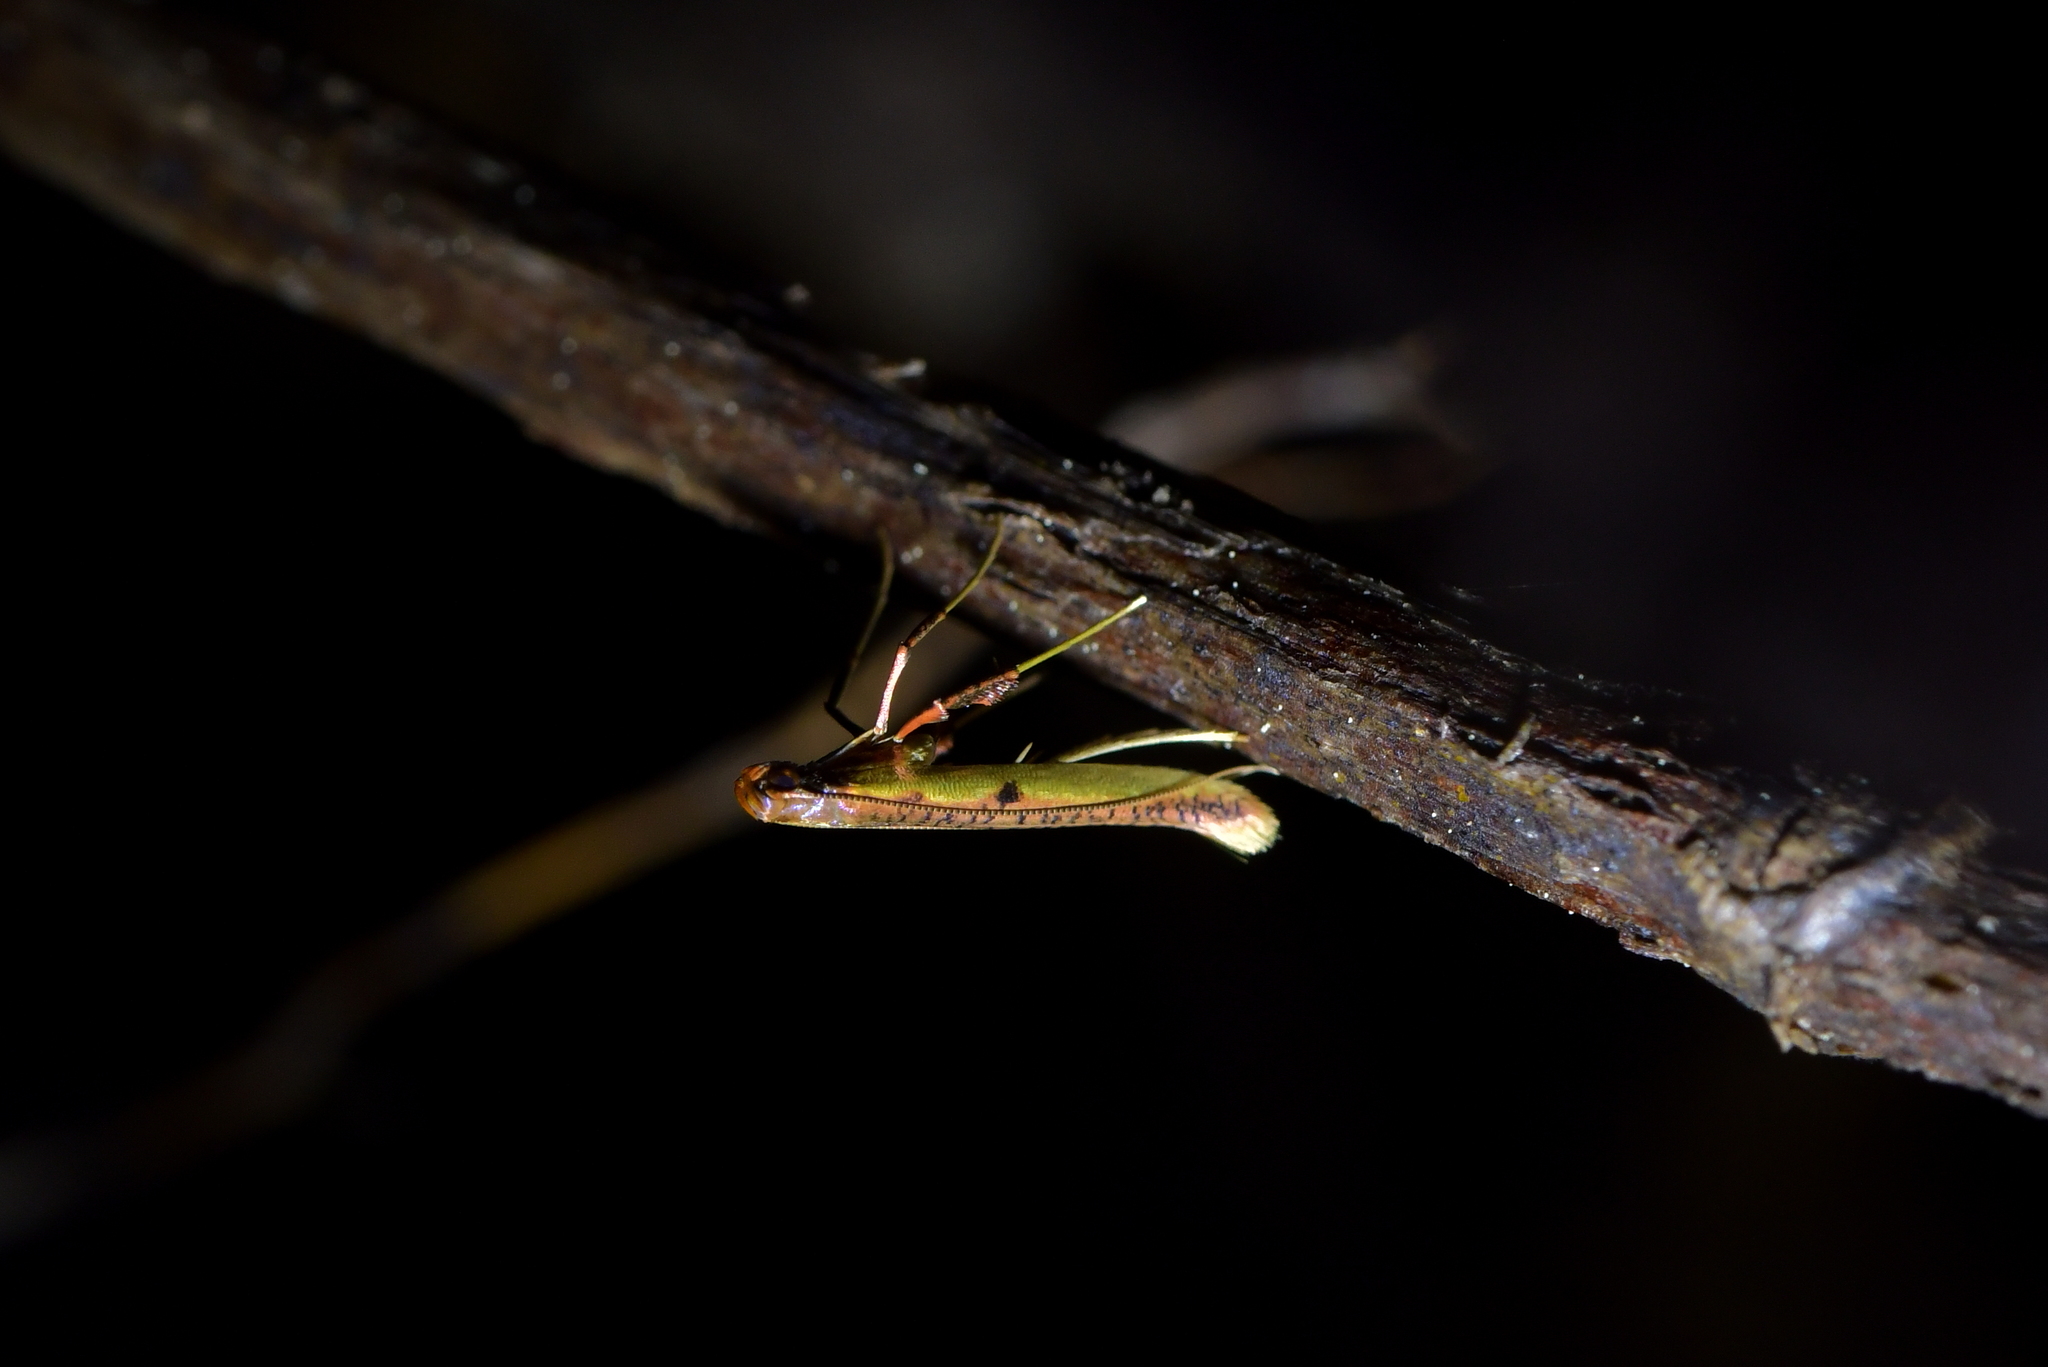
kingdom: Animalia
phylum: Arthropoda
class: Insecta
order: Lepidoptera
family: Gracillariidae
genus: Caloptilia
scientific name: Caloptilia chrysitis
